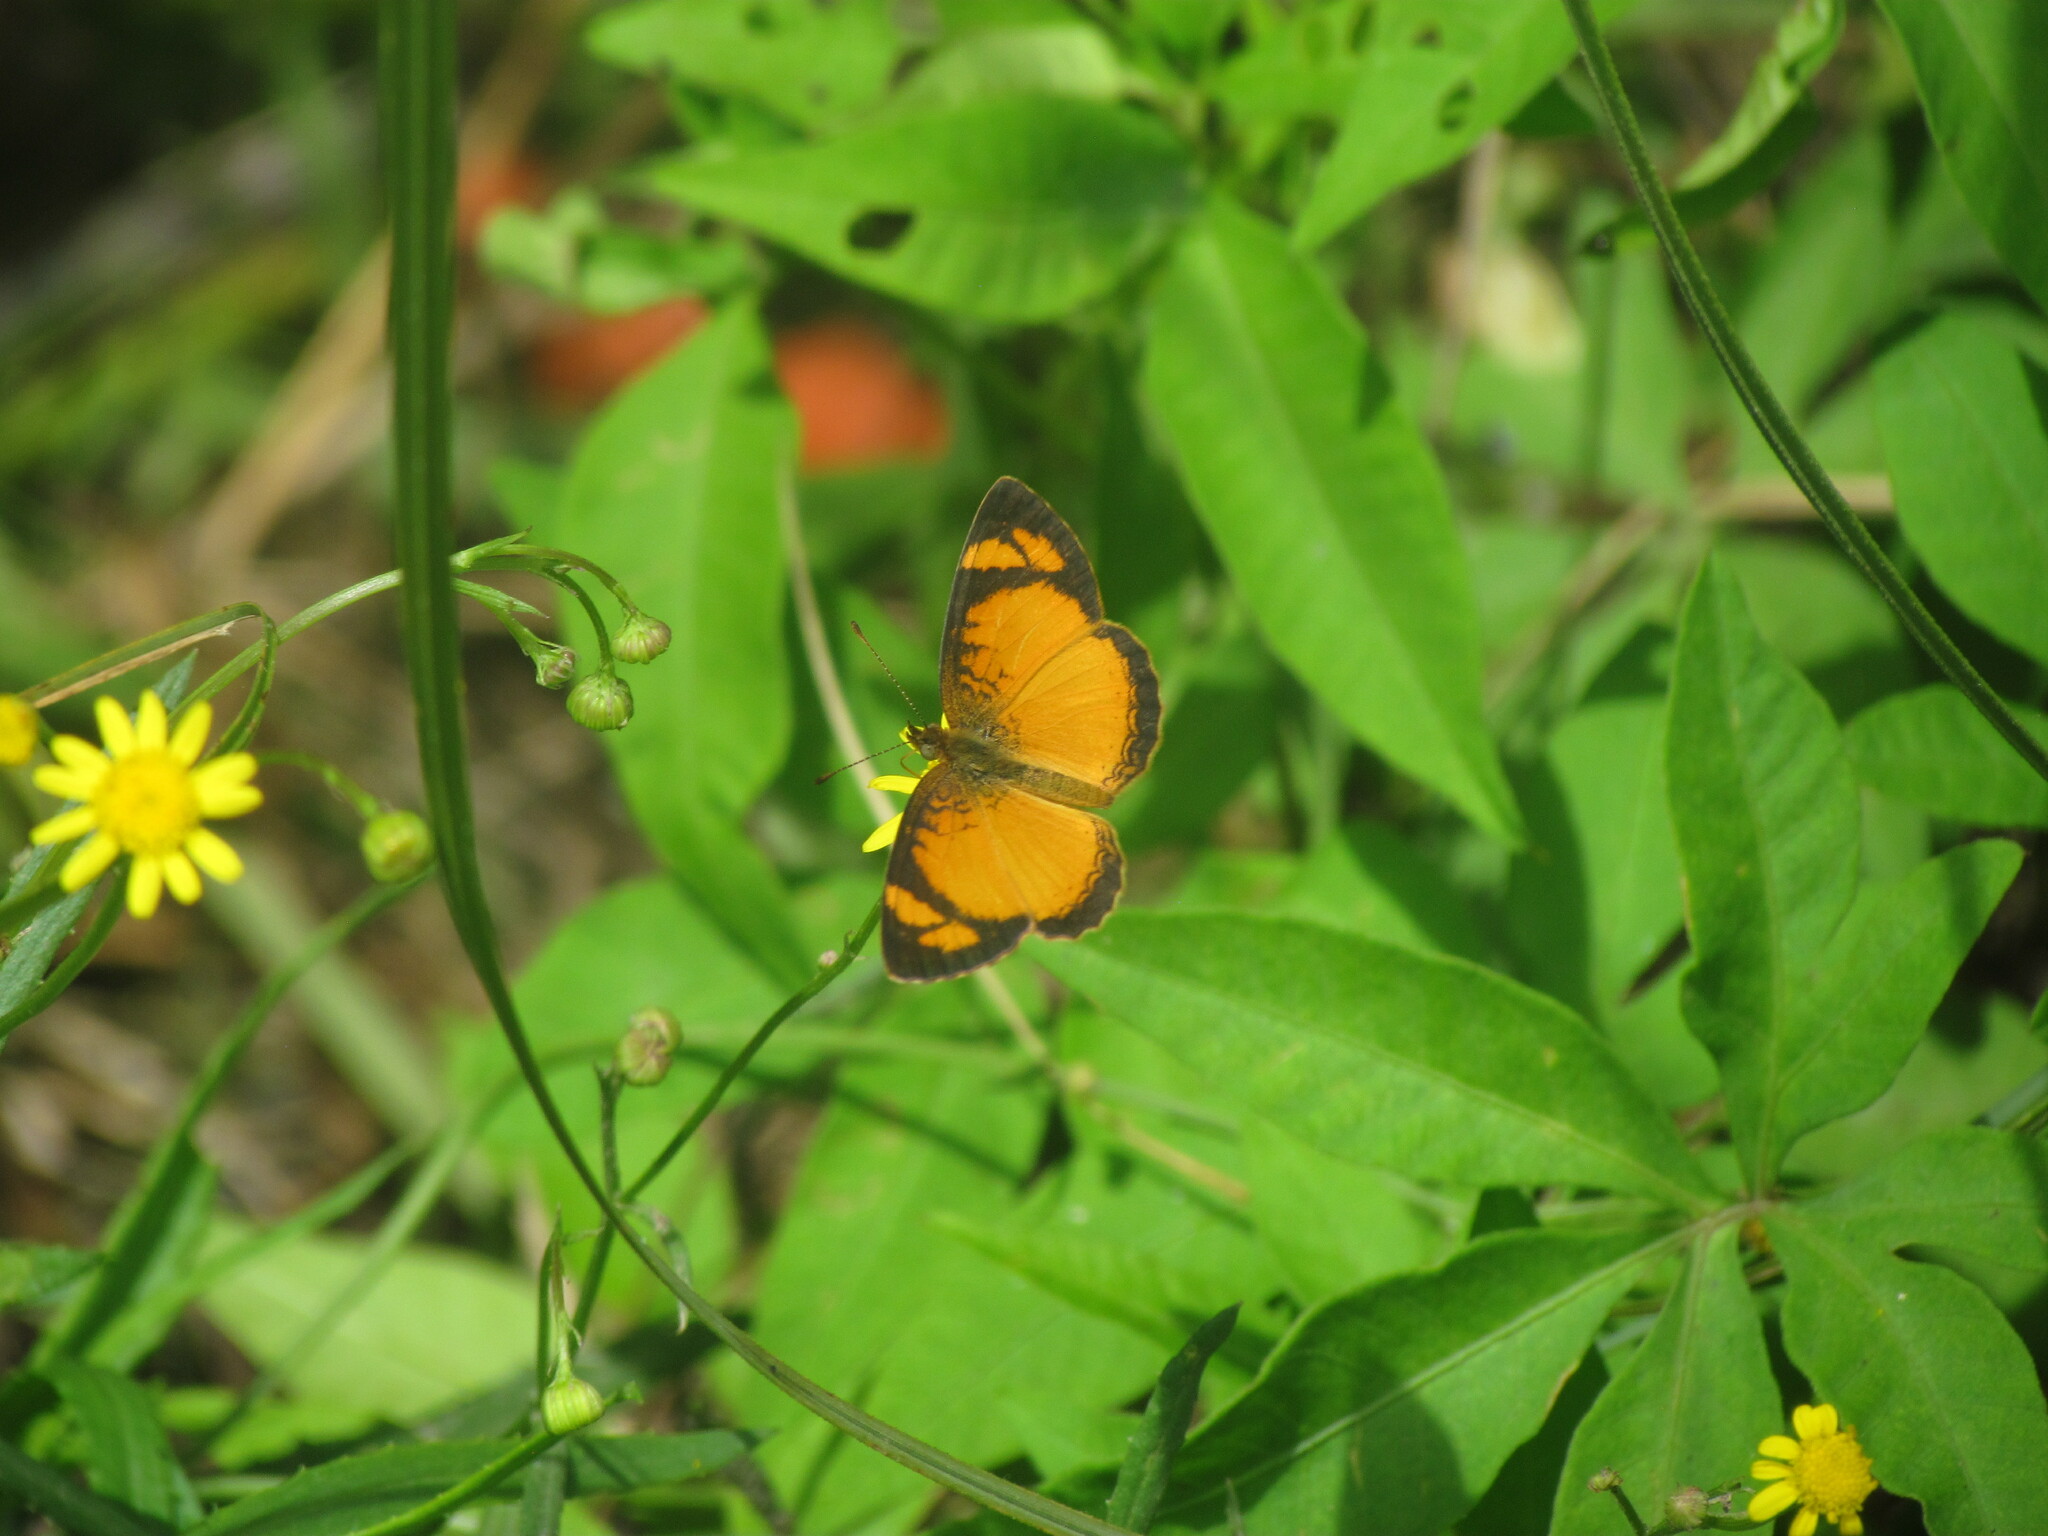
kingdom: Animalia
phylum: Arthropoda
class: Insecta
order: Lepidoptera
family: Nymphalidae
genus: Tegosa
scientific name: Tegosa claudina
